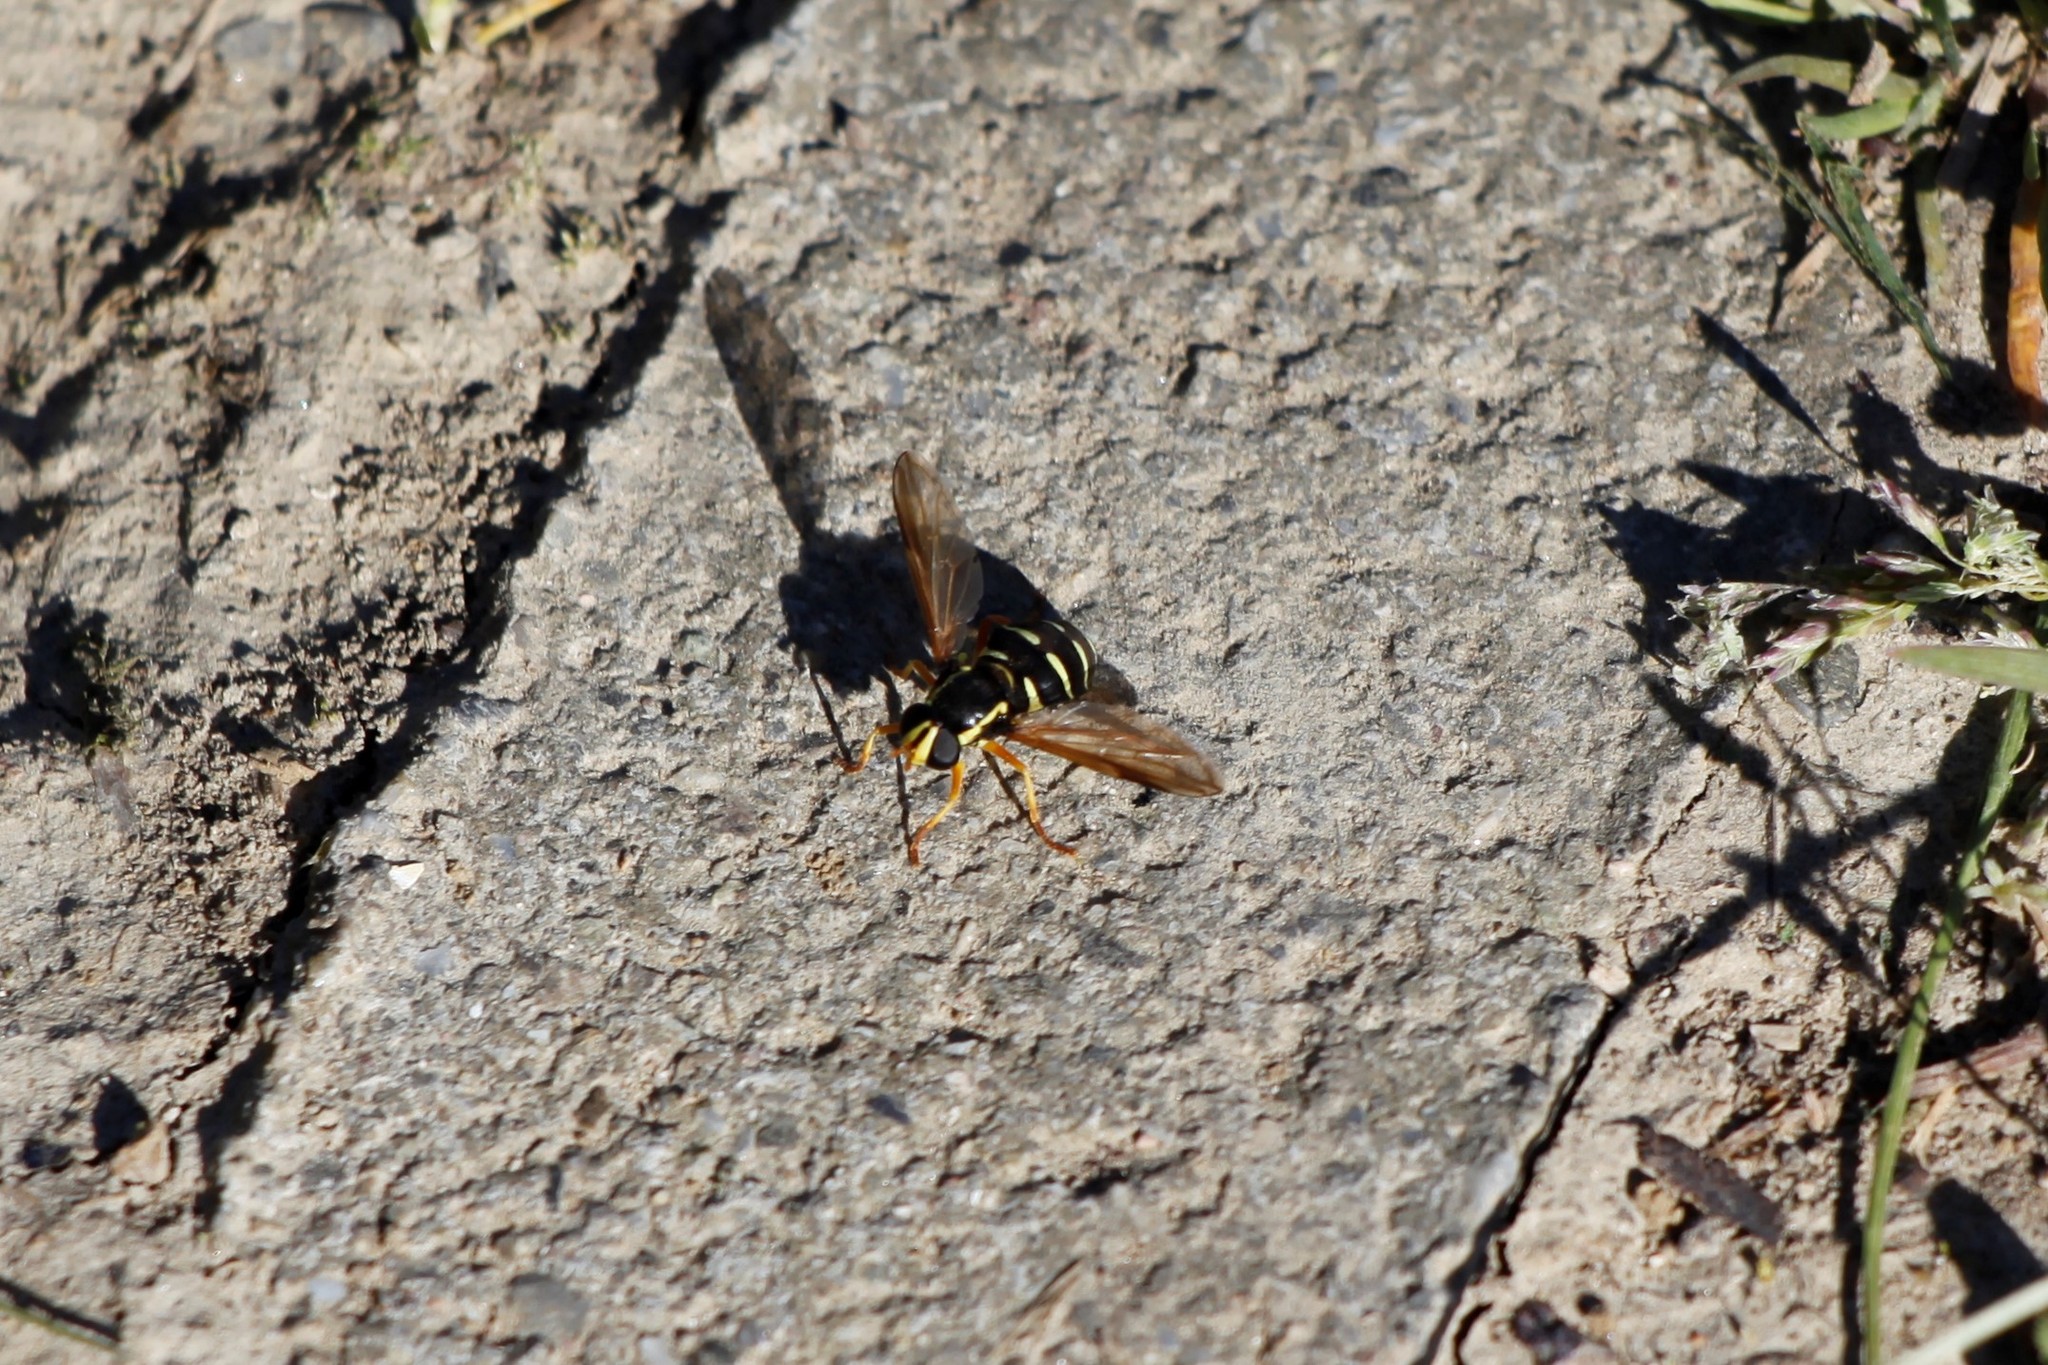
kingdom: Animalia
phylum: Arthropoda
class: Insecta
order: Diptera
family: Syrphidae
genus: Philhelius
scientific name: Philhelius citrofasciata
